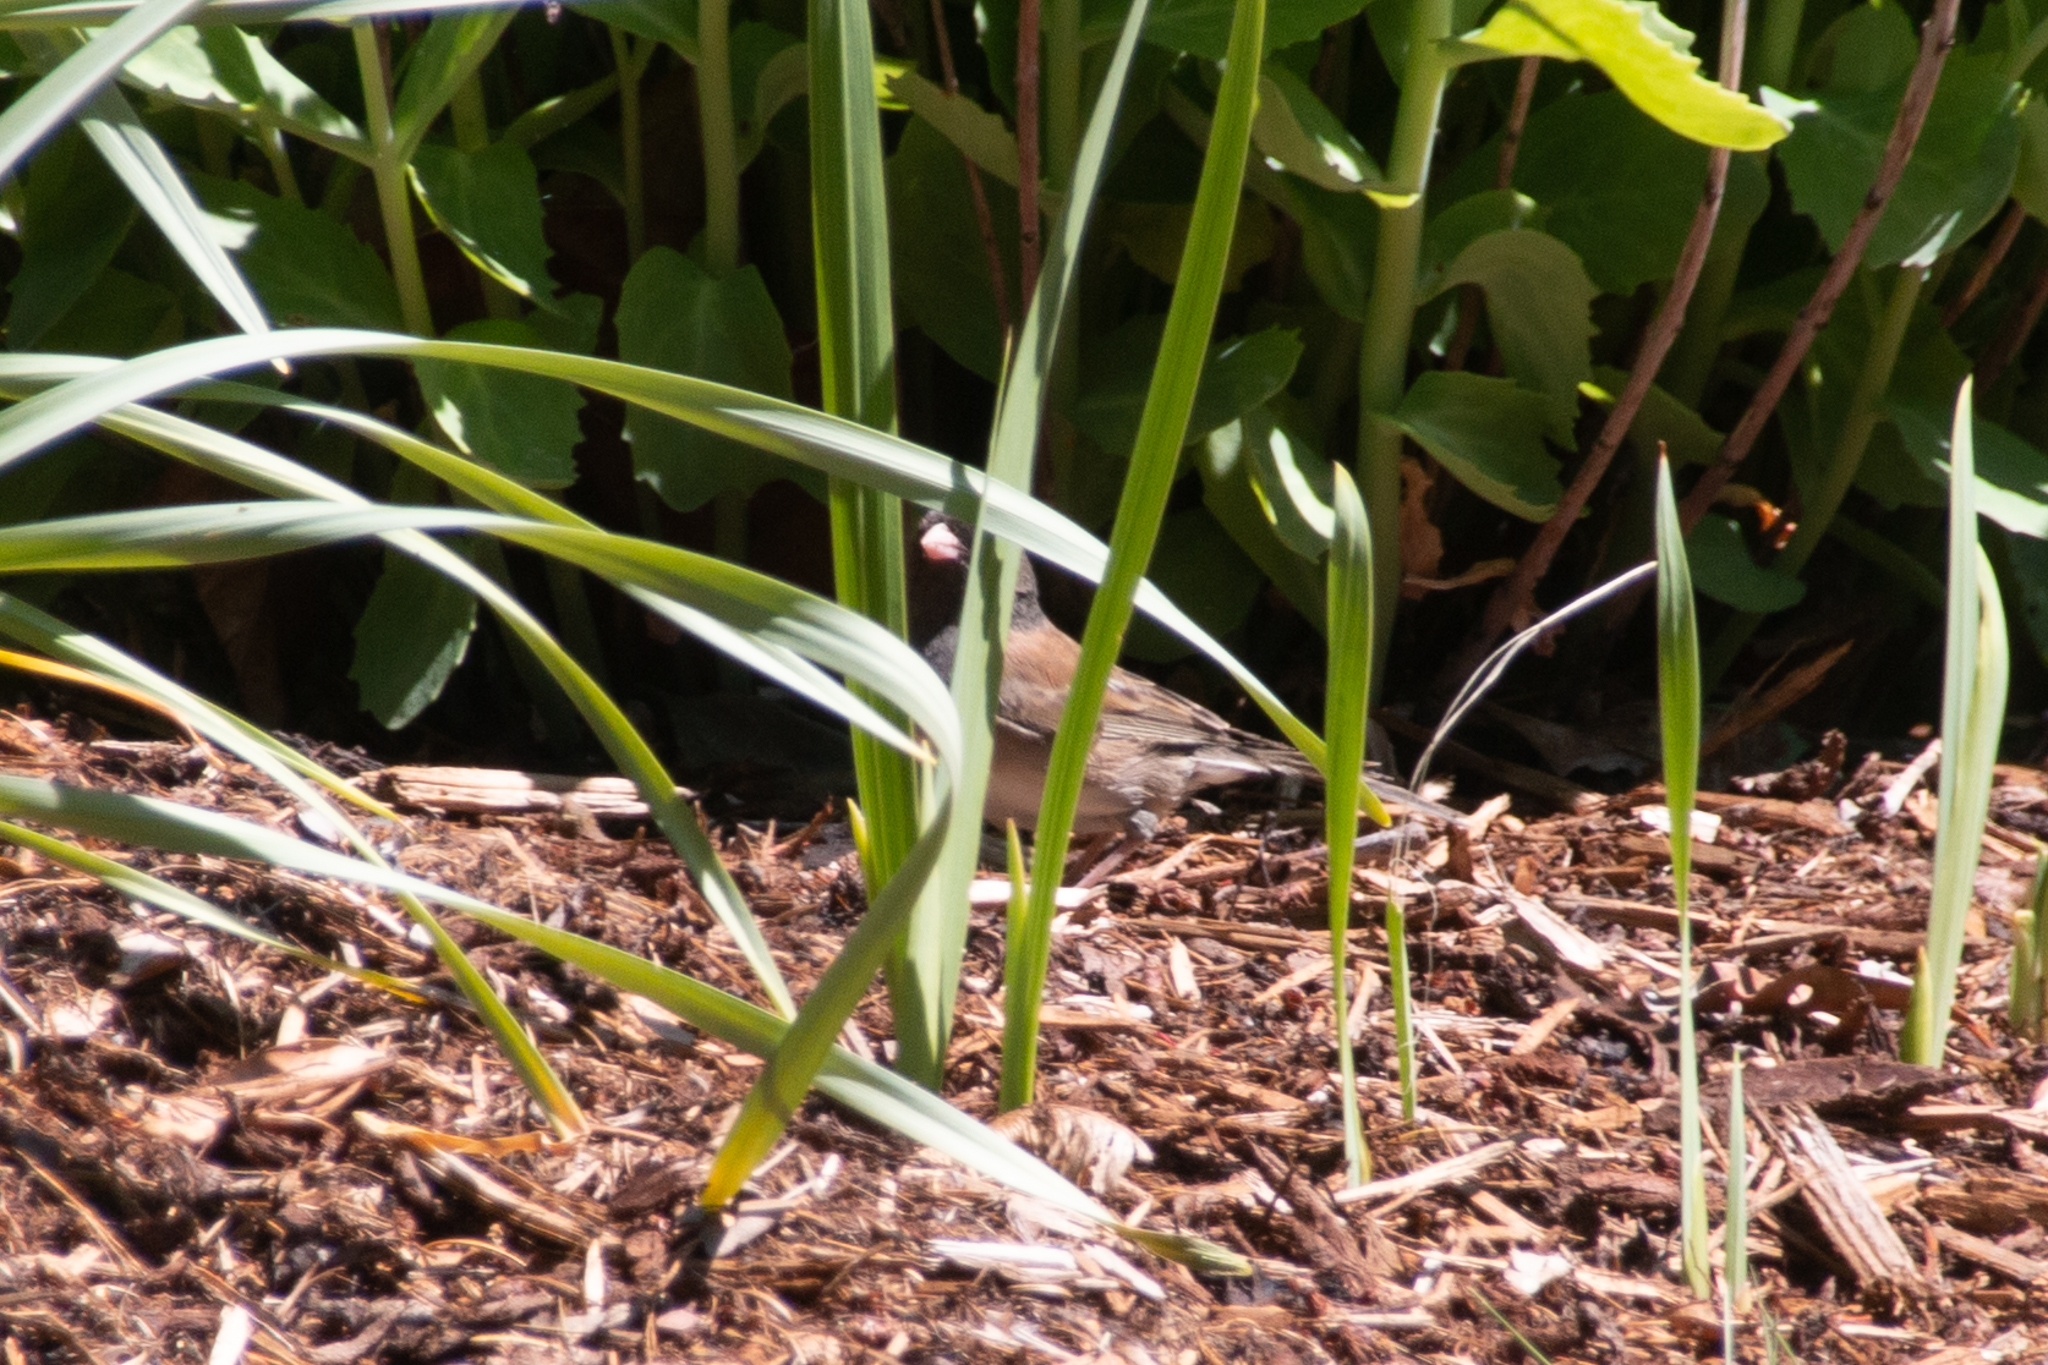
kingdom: Animalia
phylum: Chordata
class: Aves
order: Passeriformes
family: Passerellidae
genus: Junco
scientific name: Junco hyemalis
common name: Dark-eyed junco
